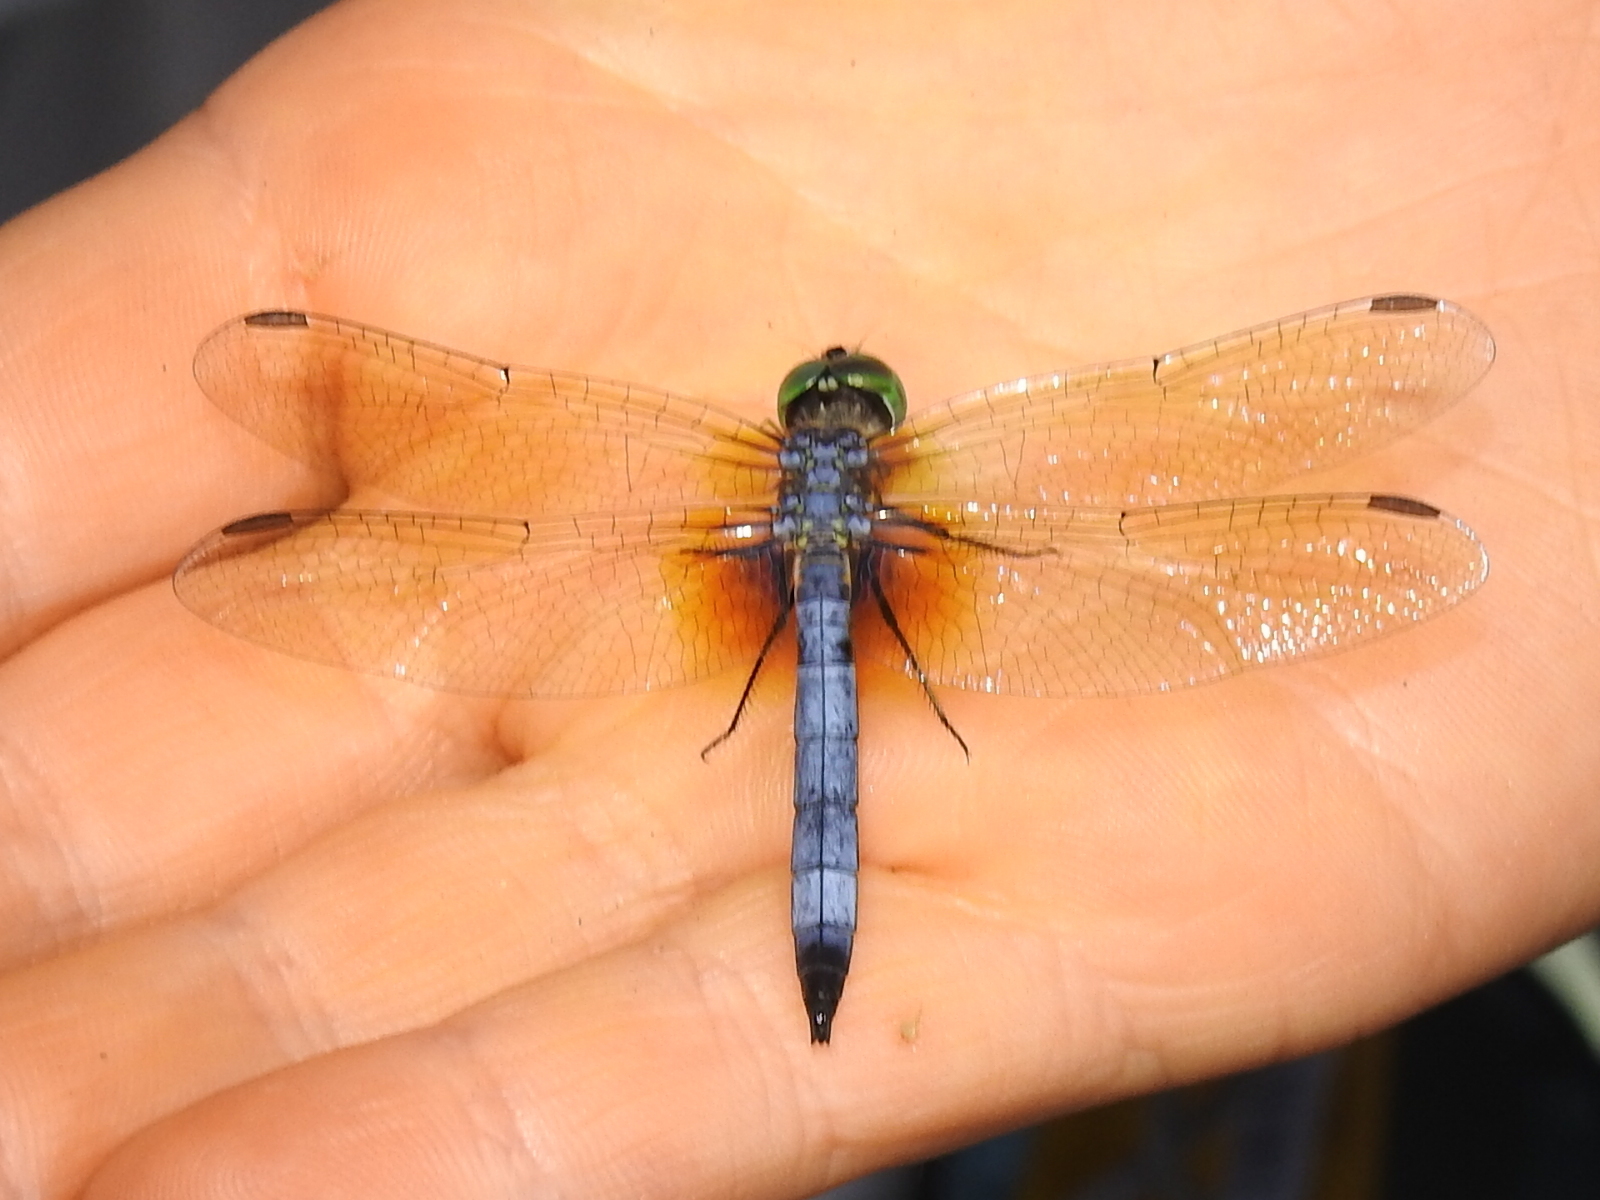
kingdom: Animalia
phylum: Arthropoda
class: Insecta
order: Odonata
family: Libellulidae
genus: Pachydiplax
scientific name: Pachydiplax longipennis
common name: Blue dasher
